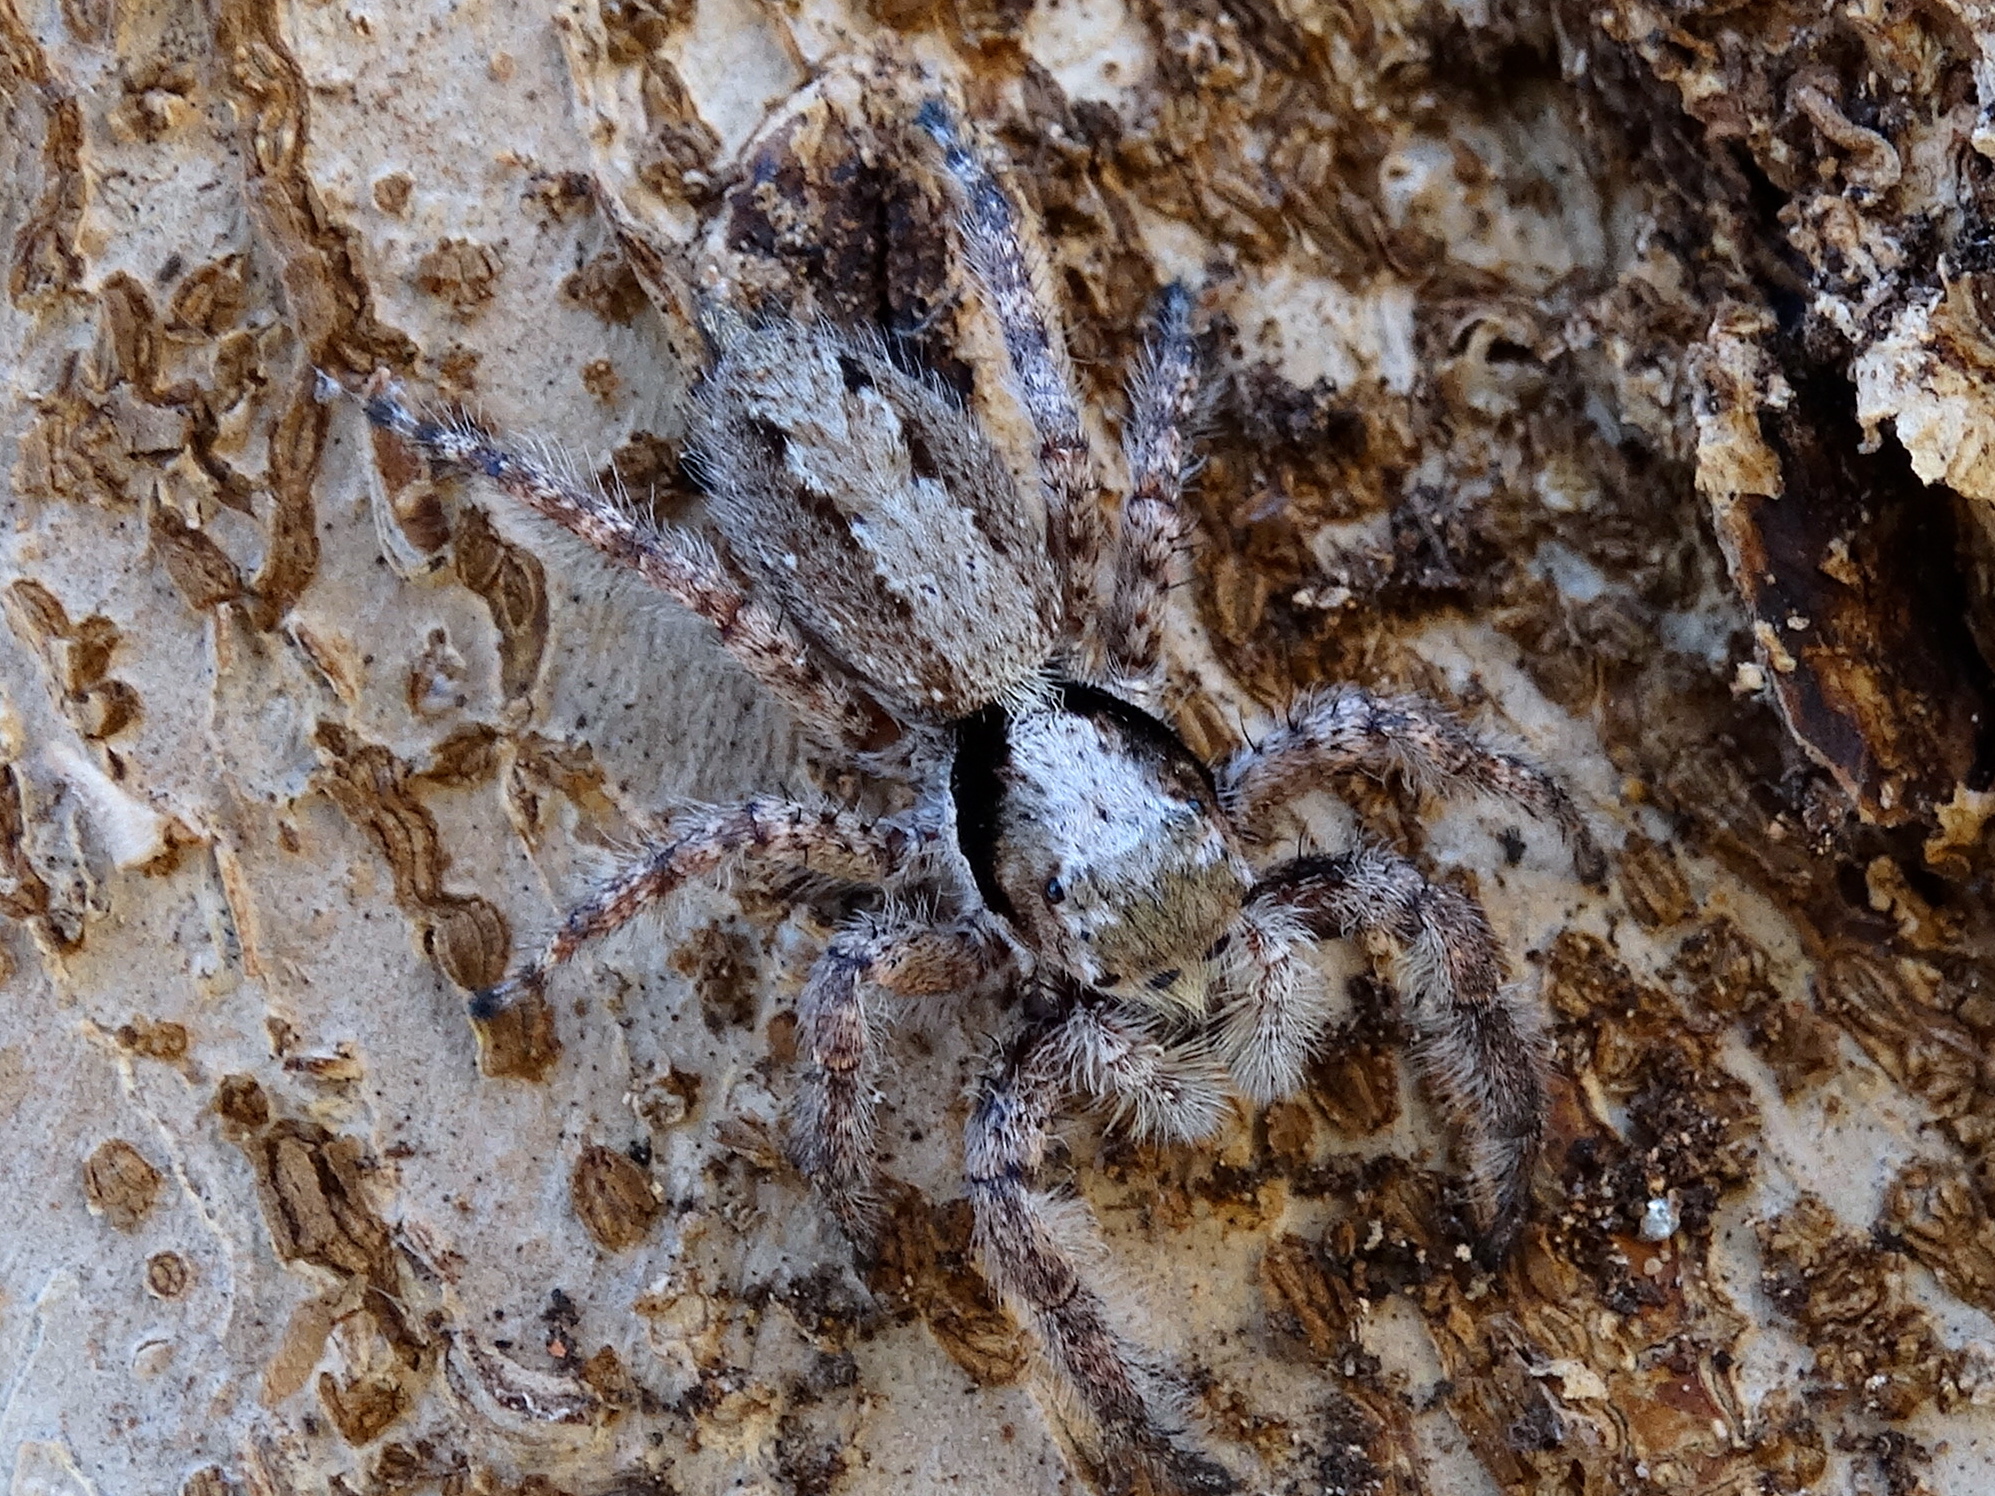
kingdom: Animalia
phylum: Arthropoda
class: Arachnida
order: Araneae
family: Salticidae
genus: Balmaceda
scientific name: Balmaceda
